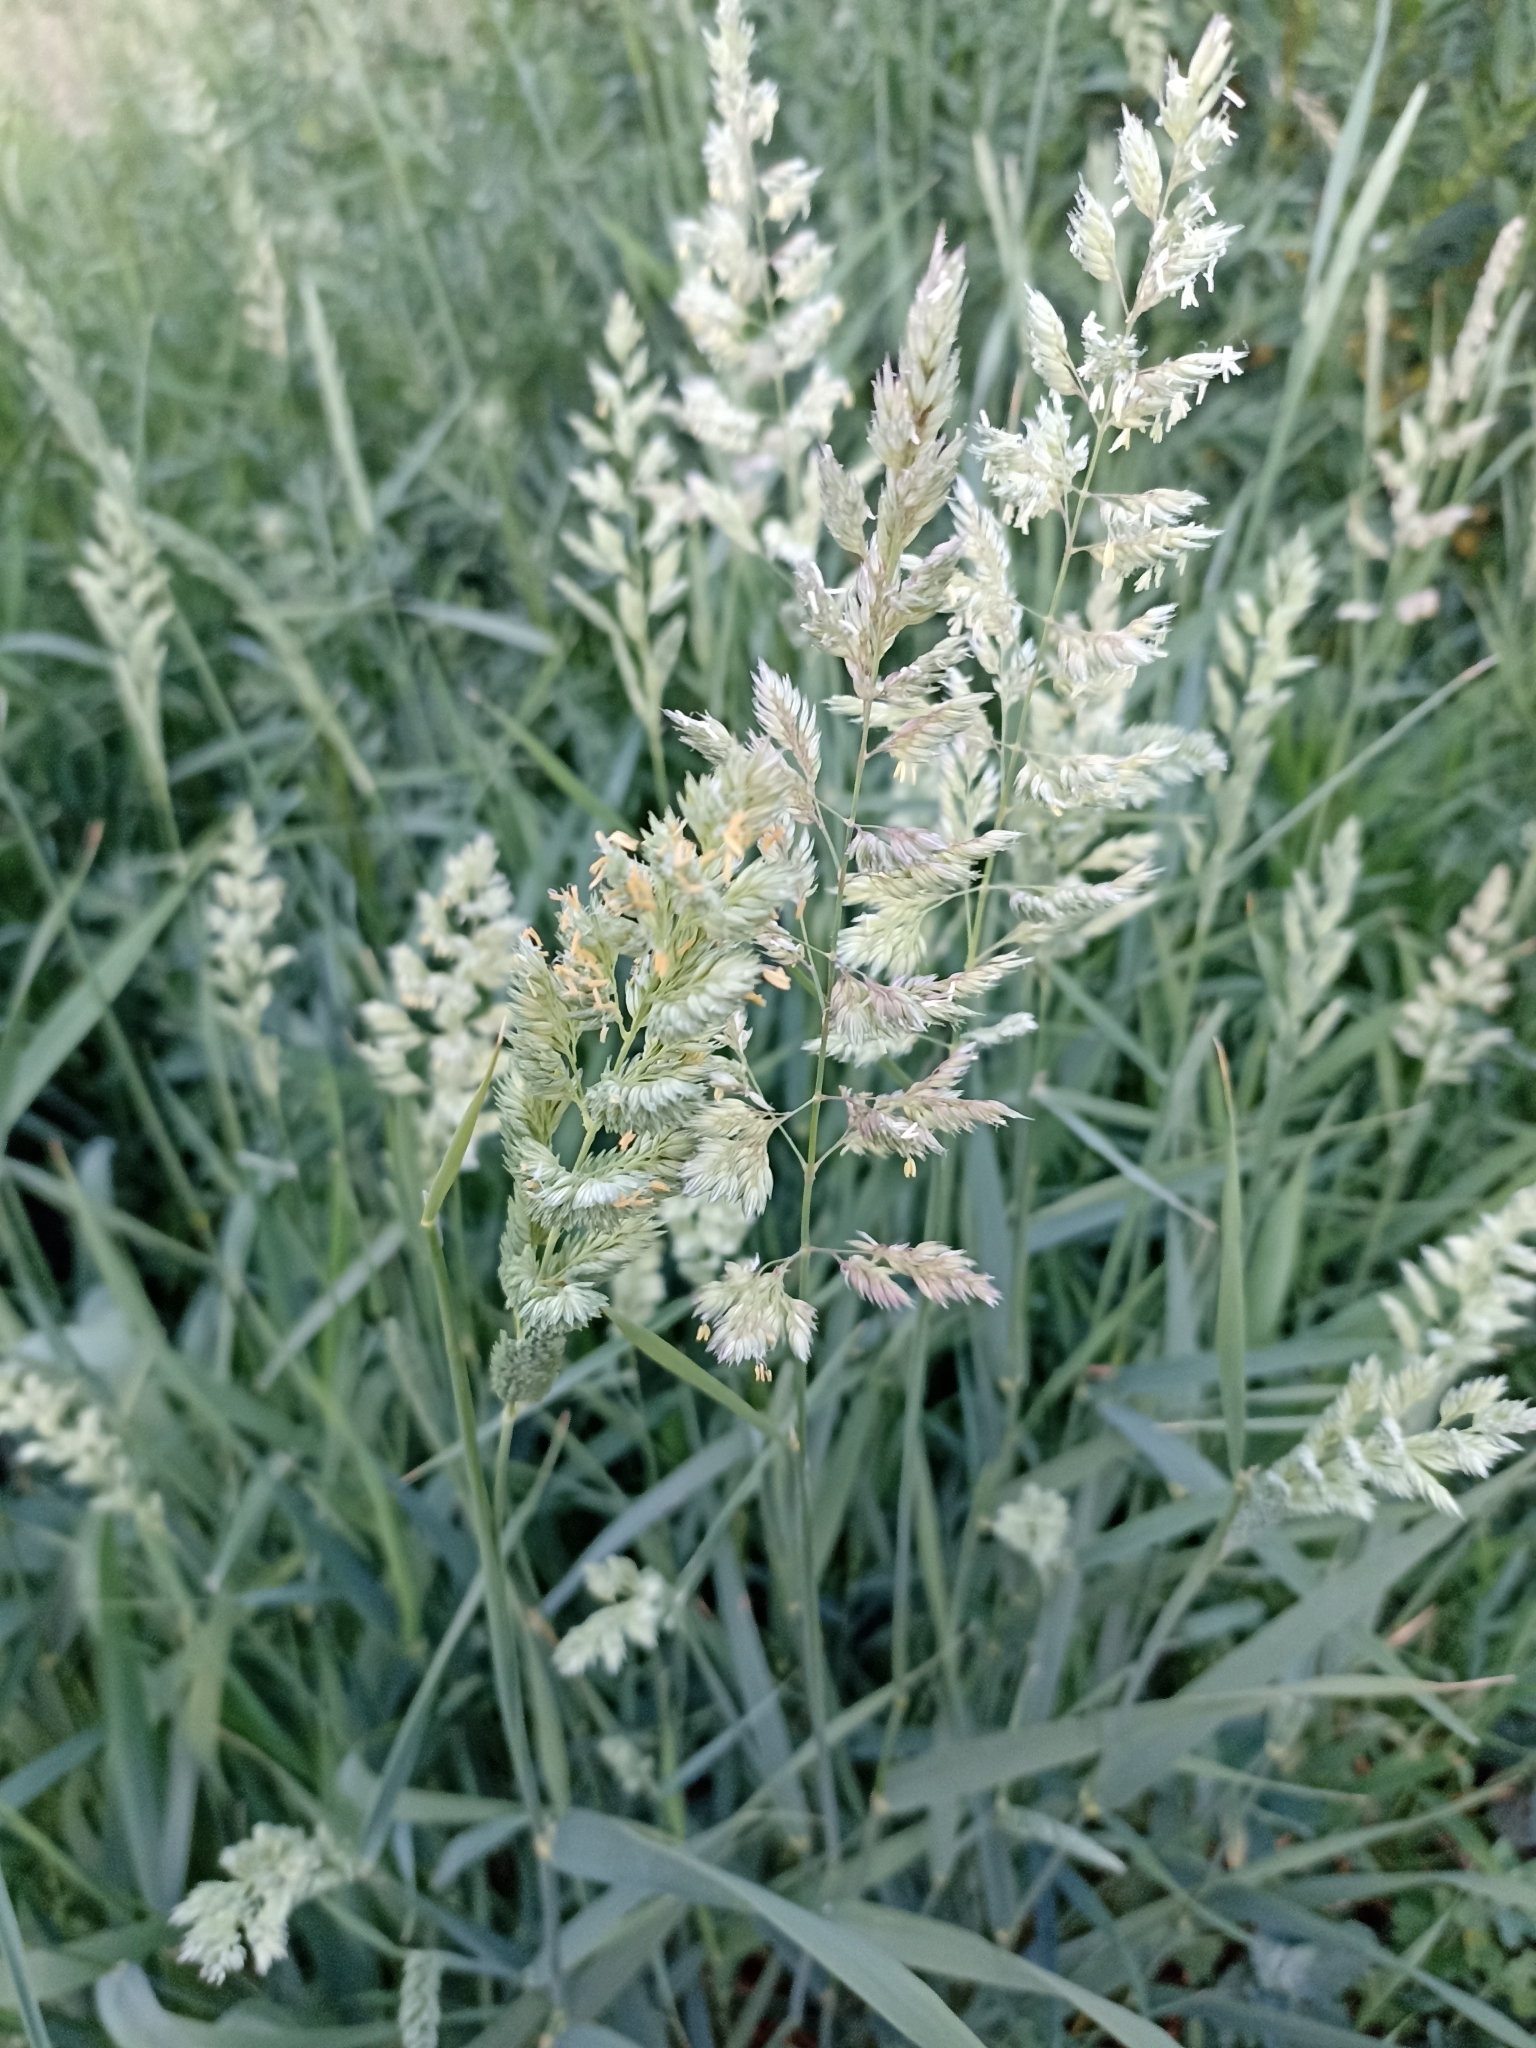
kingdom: Plantae
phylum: Tracheophyta
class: Liliopsida
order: Poales
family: Poaceae
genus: Phalaris
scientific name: Phalaris arundinacea
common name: Reed canary-grass
